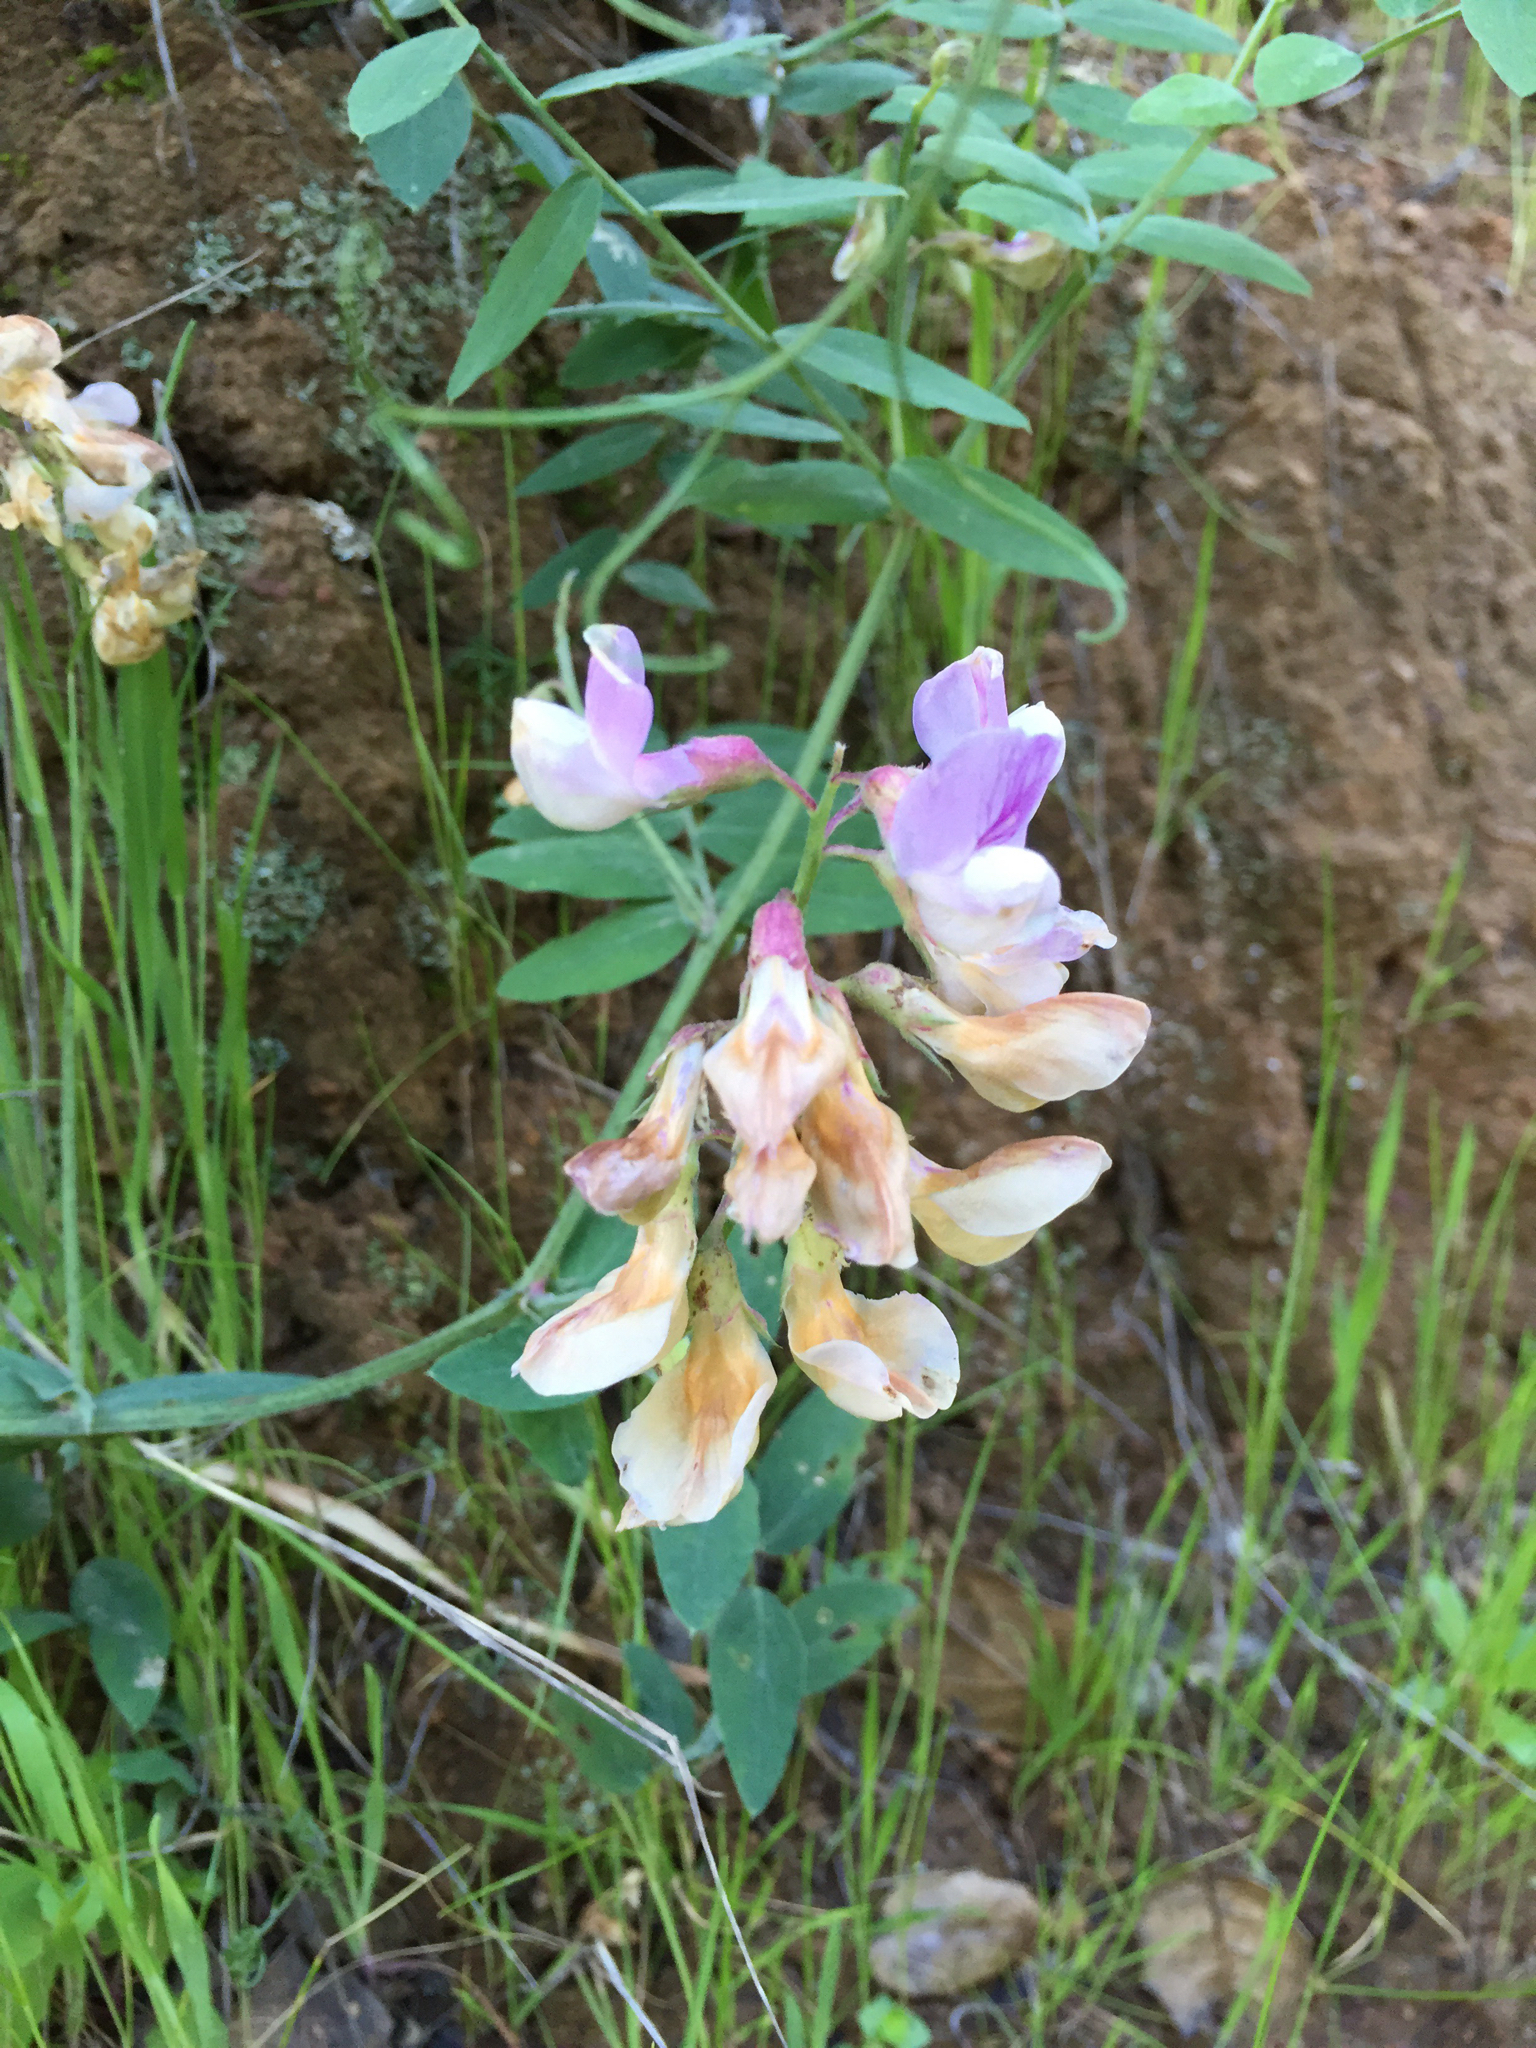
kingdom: Plantae
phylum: Tracheophyta
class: Magnoliopsida
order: Fabales
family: Fabaceae
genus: Lathyrus
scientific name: Lathyrus vestitus
